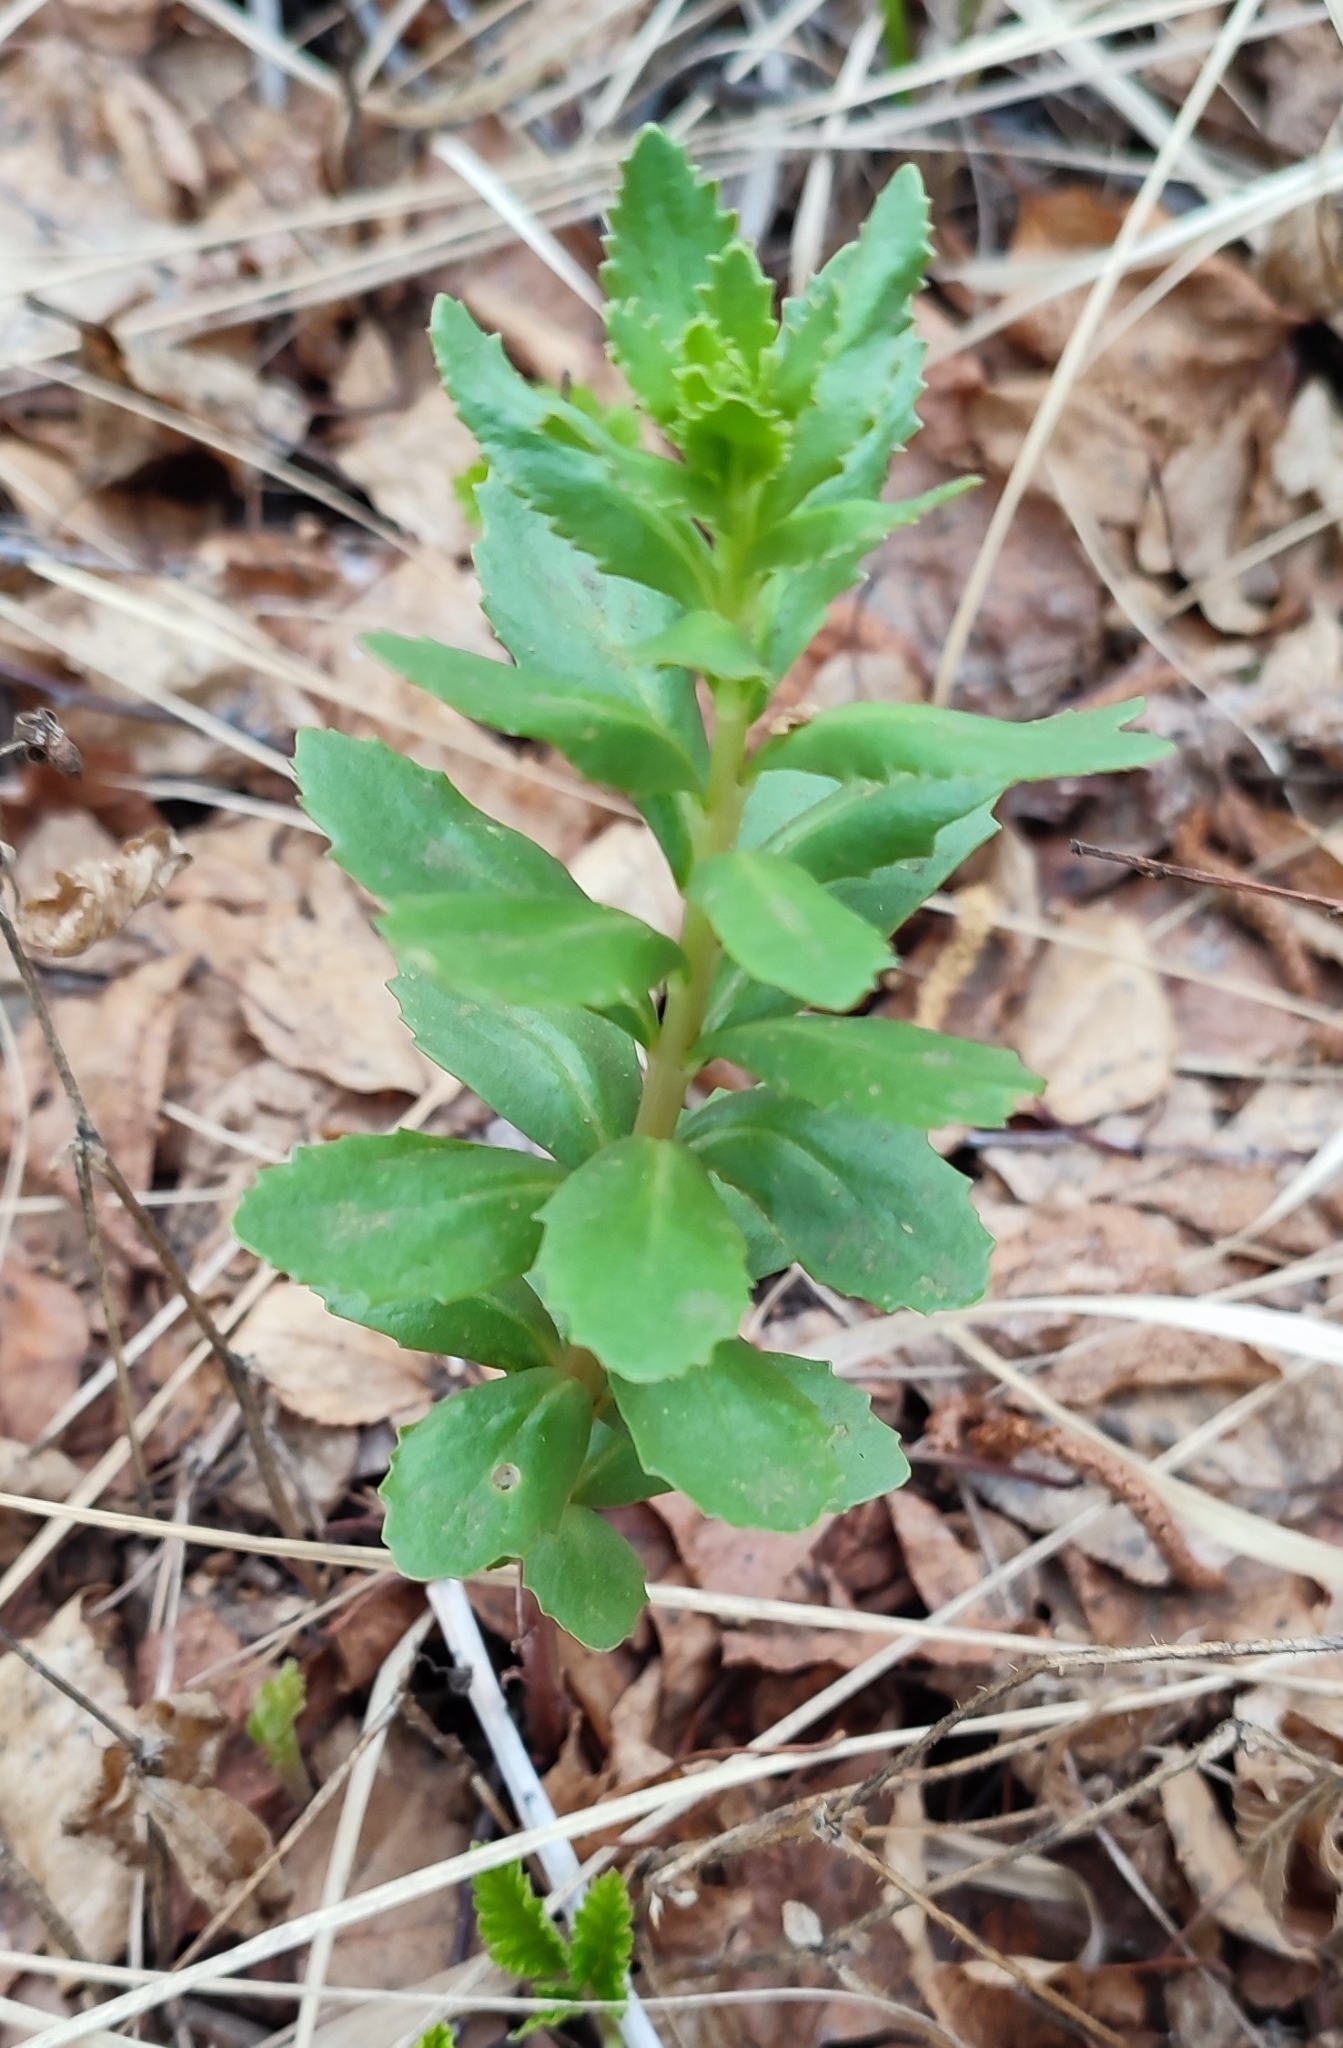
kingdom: Plantae
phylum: Tracheophyta
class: Magnoliopsida
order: Saxifragales
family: Crassulaceae
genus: Hylotelephium
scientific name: Hylotelephium telephium
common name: Live-forever
